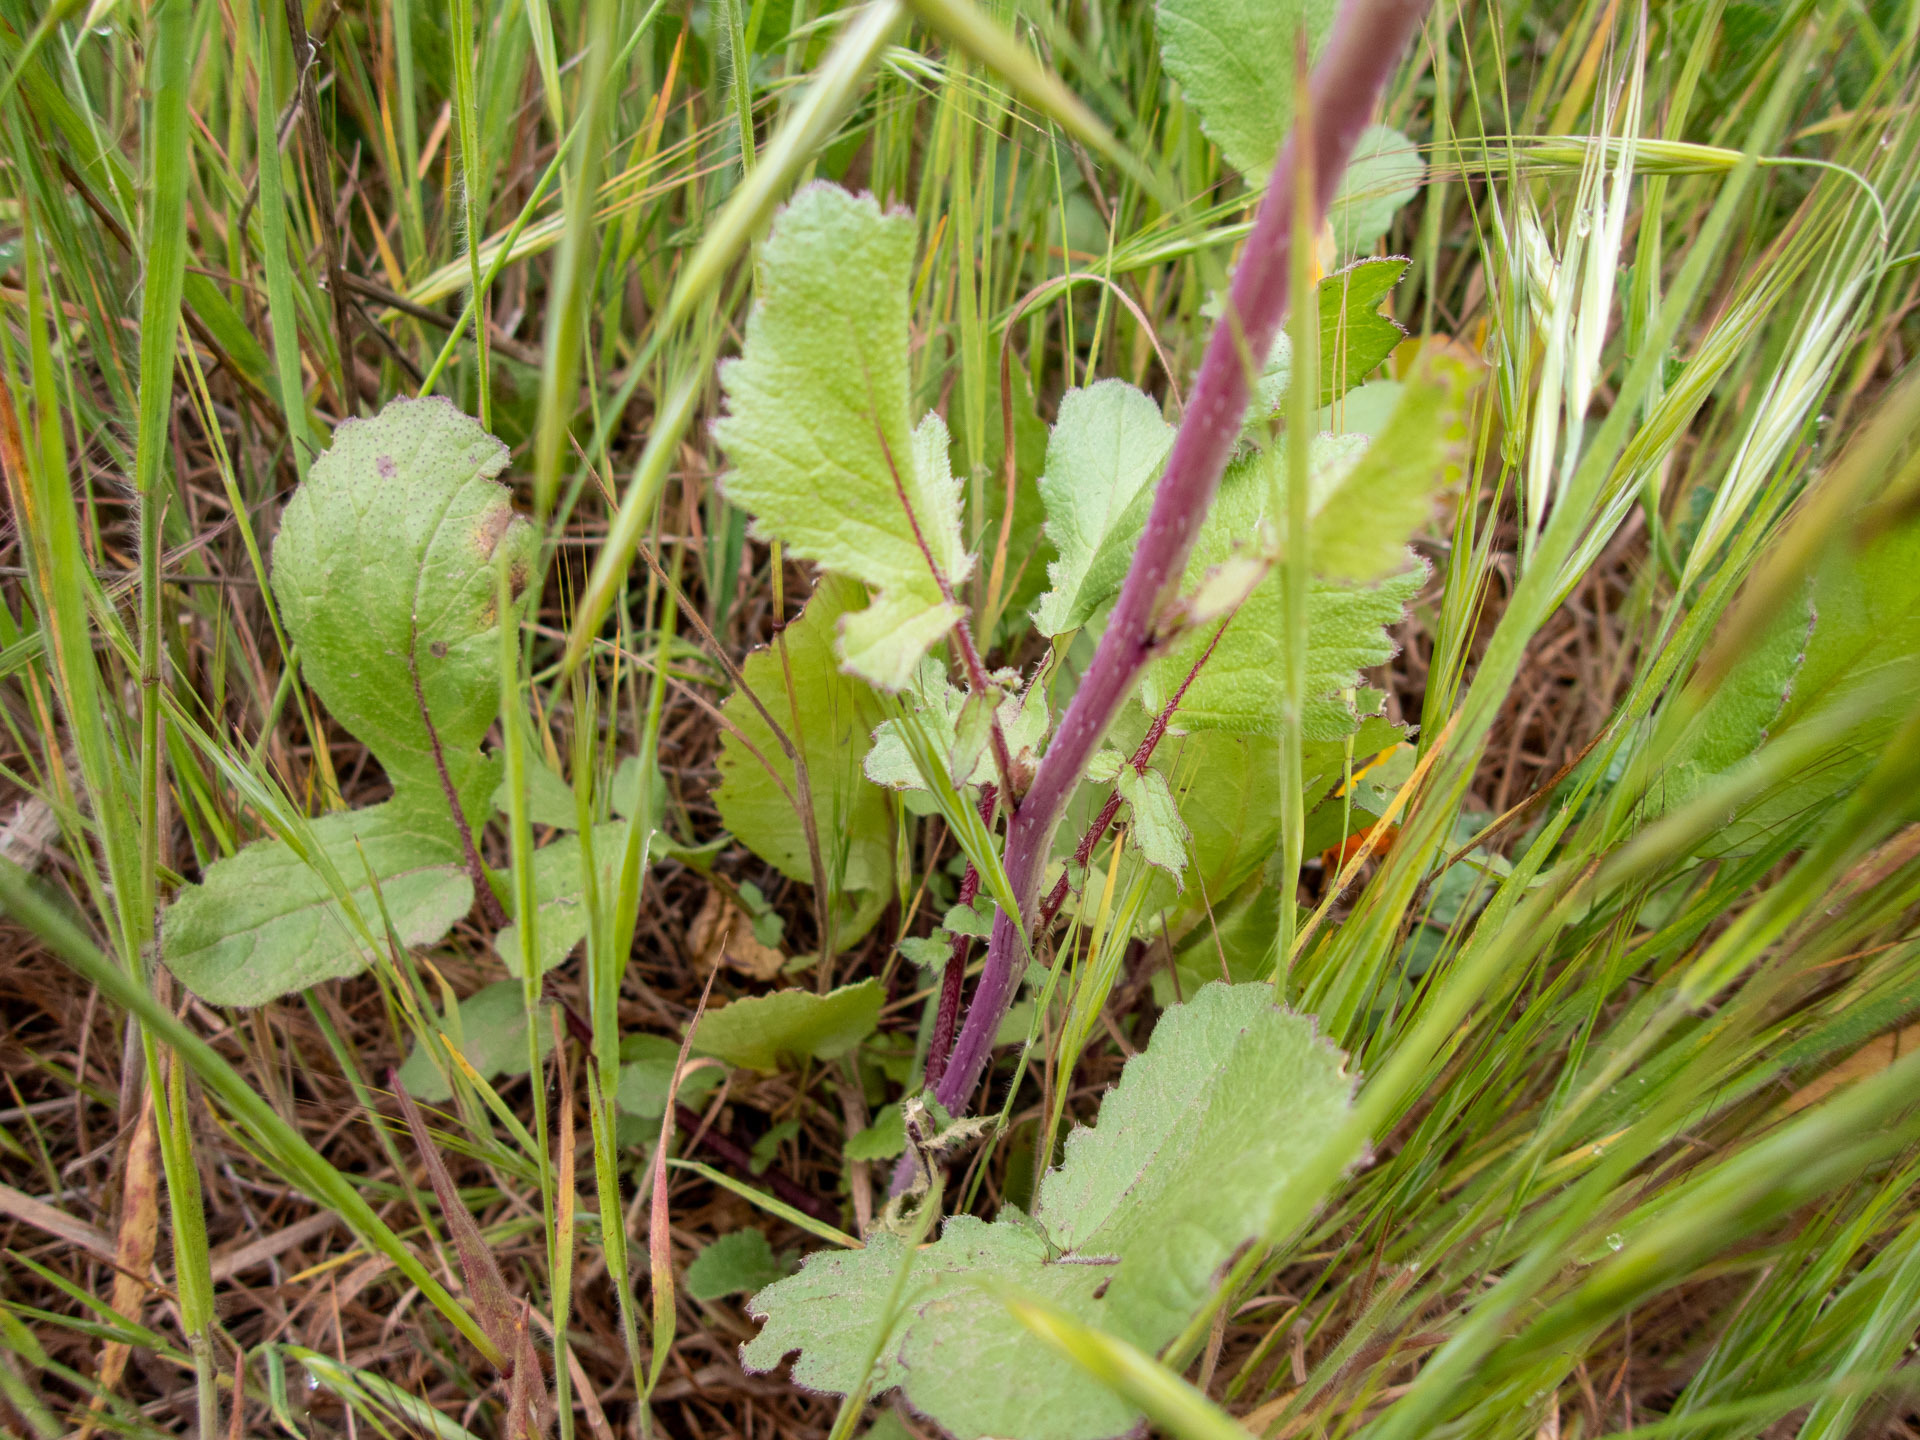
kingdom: Plantae
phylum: Tracheophyta
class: Magnoliopsida
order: Brassicales
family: Brassicaceae
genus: Raphanus
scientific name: Raphanus sativus
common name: Cultivated radish
